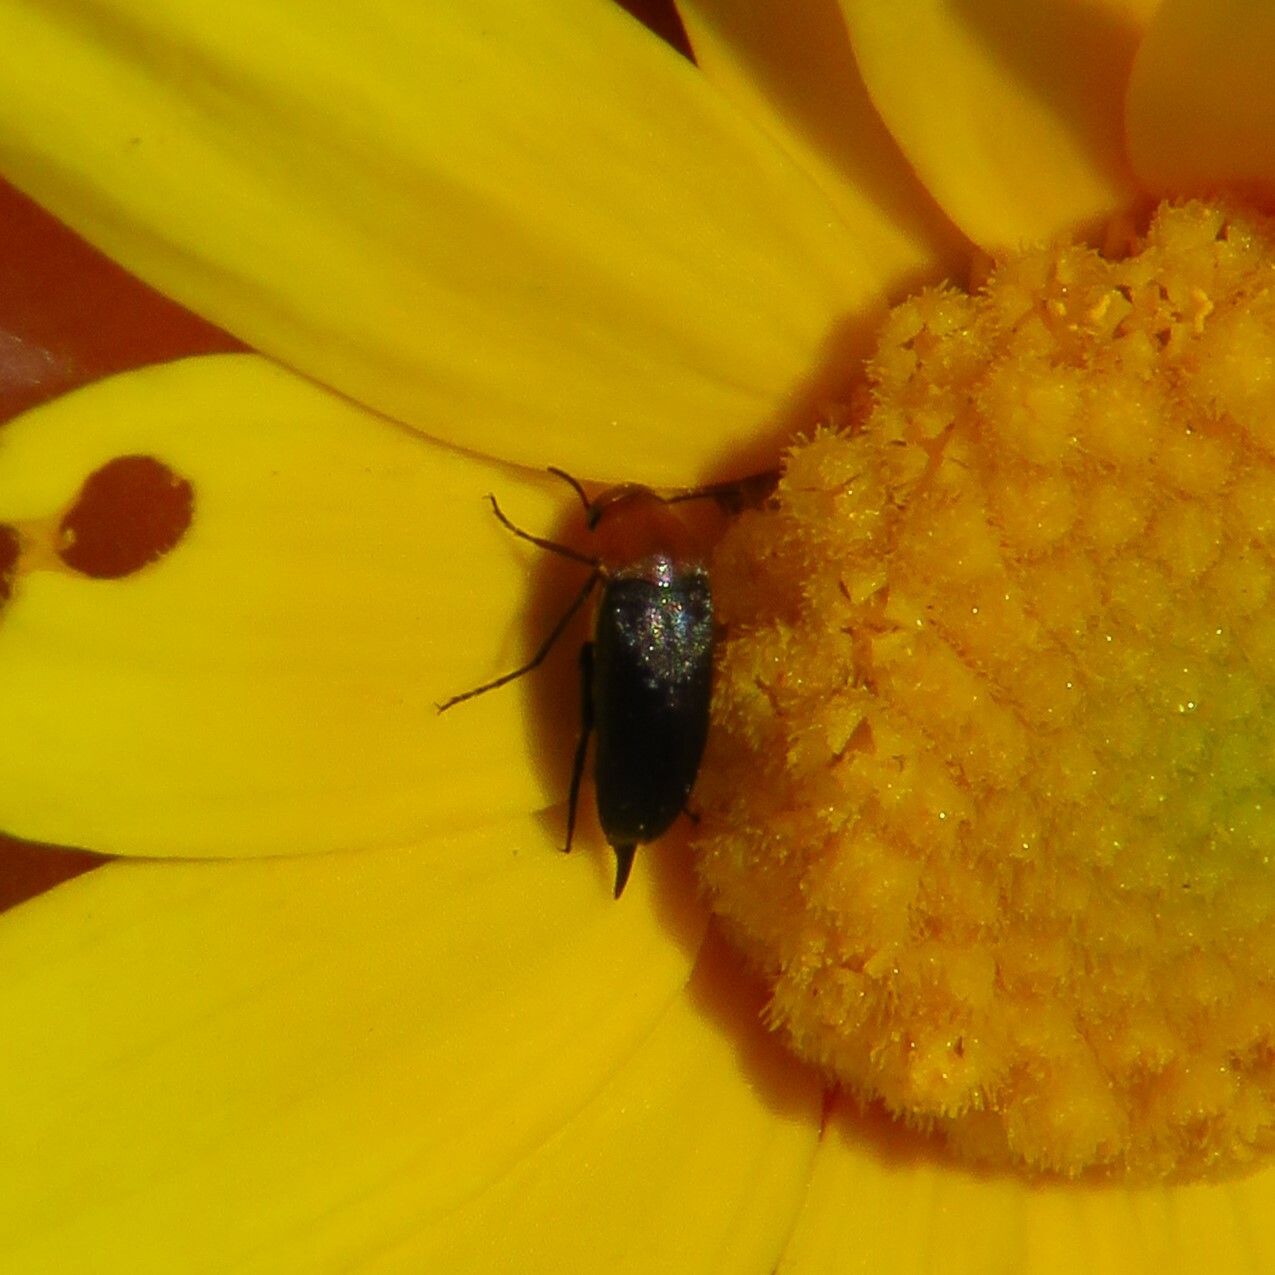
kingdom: Animalia
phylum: Arthropoda
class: Insecta
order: Coleoptera
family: Mordellidae
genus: Mordellistena
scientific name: Mordellistena cervicalis
